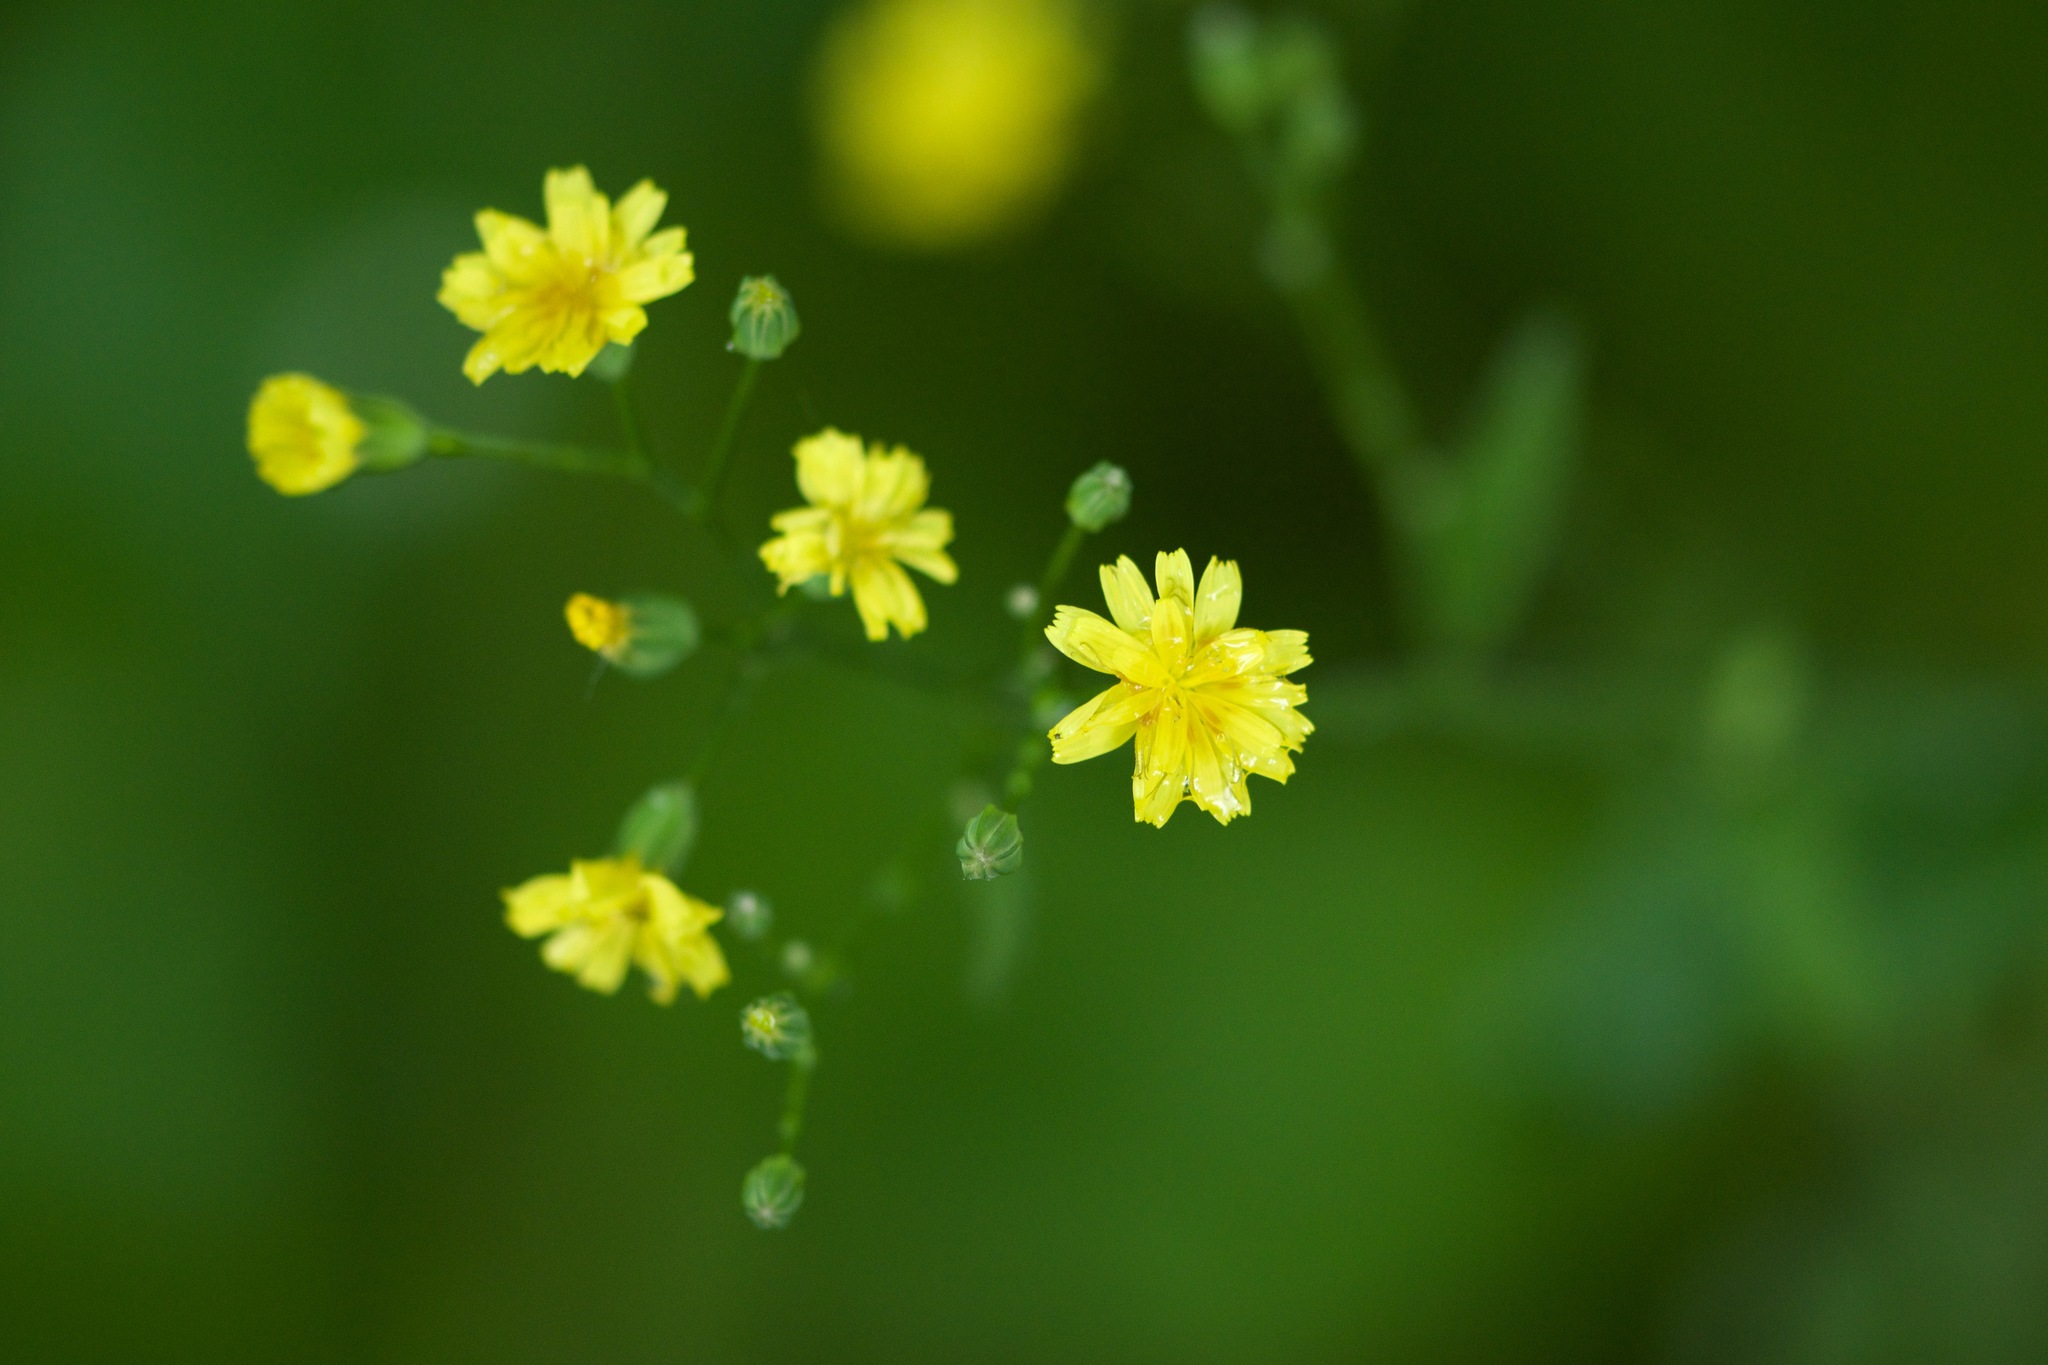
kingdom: Plantae
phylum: Tracheophyta
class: Magnoliopsida
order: Asterales
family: Asteraceae
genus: Lapsana
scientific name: Lapsana communis
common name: Nipplewort
